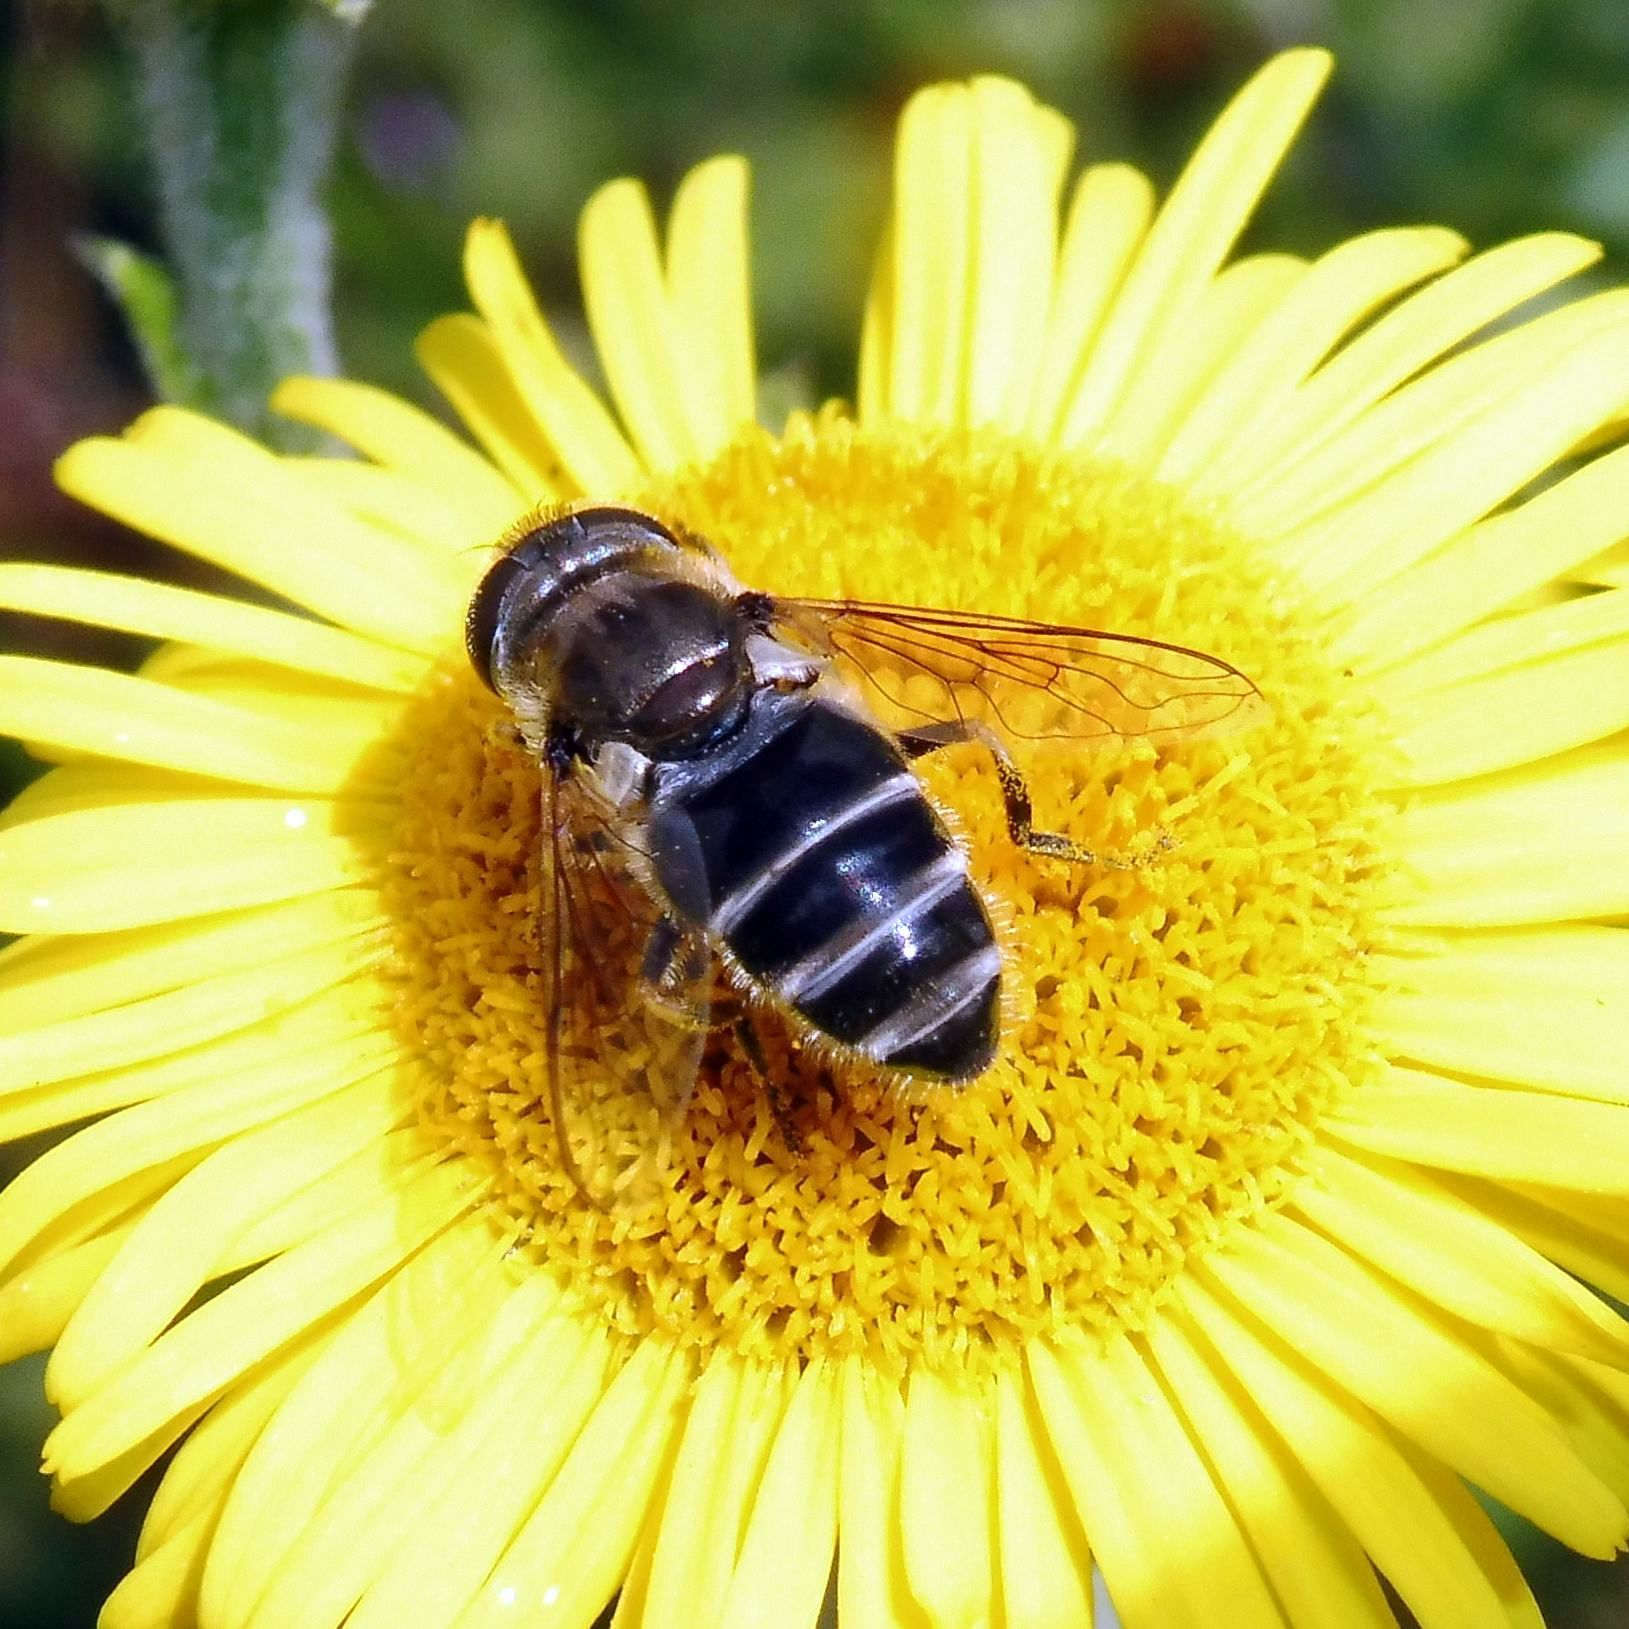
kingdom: Animalia
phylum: Arthropoda
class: Insecta
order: Diptera
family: Syrphidae
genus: Eristalis
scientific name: Eristalis arbustorum
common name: Hover fly
